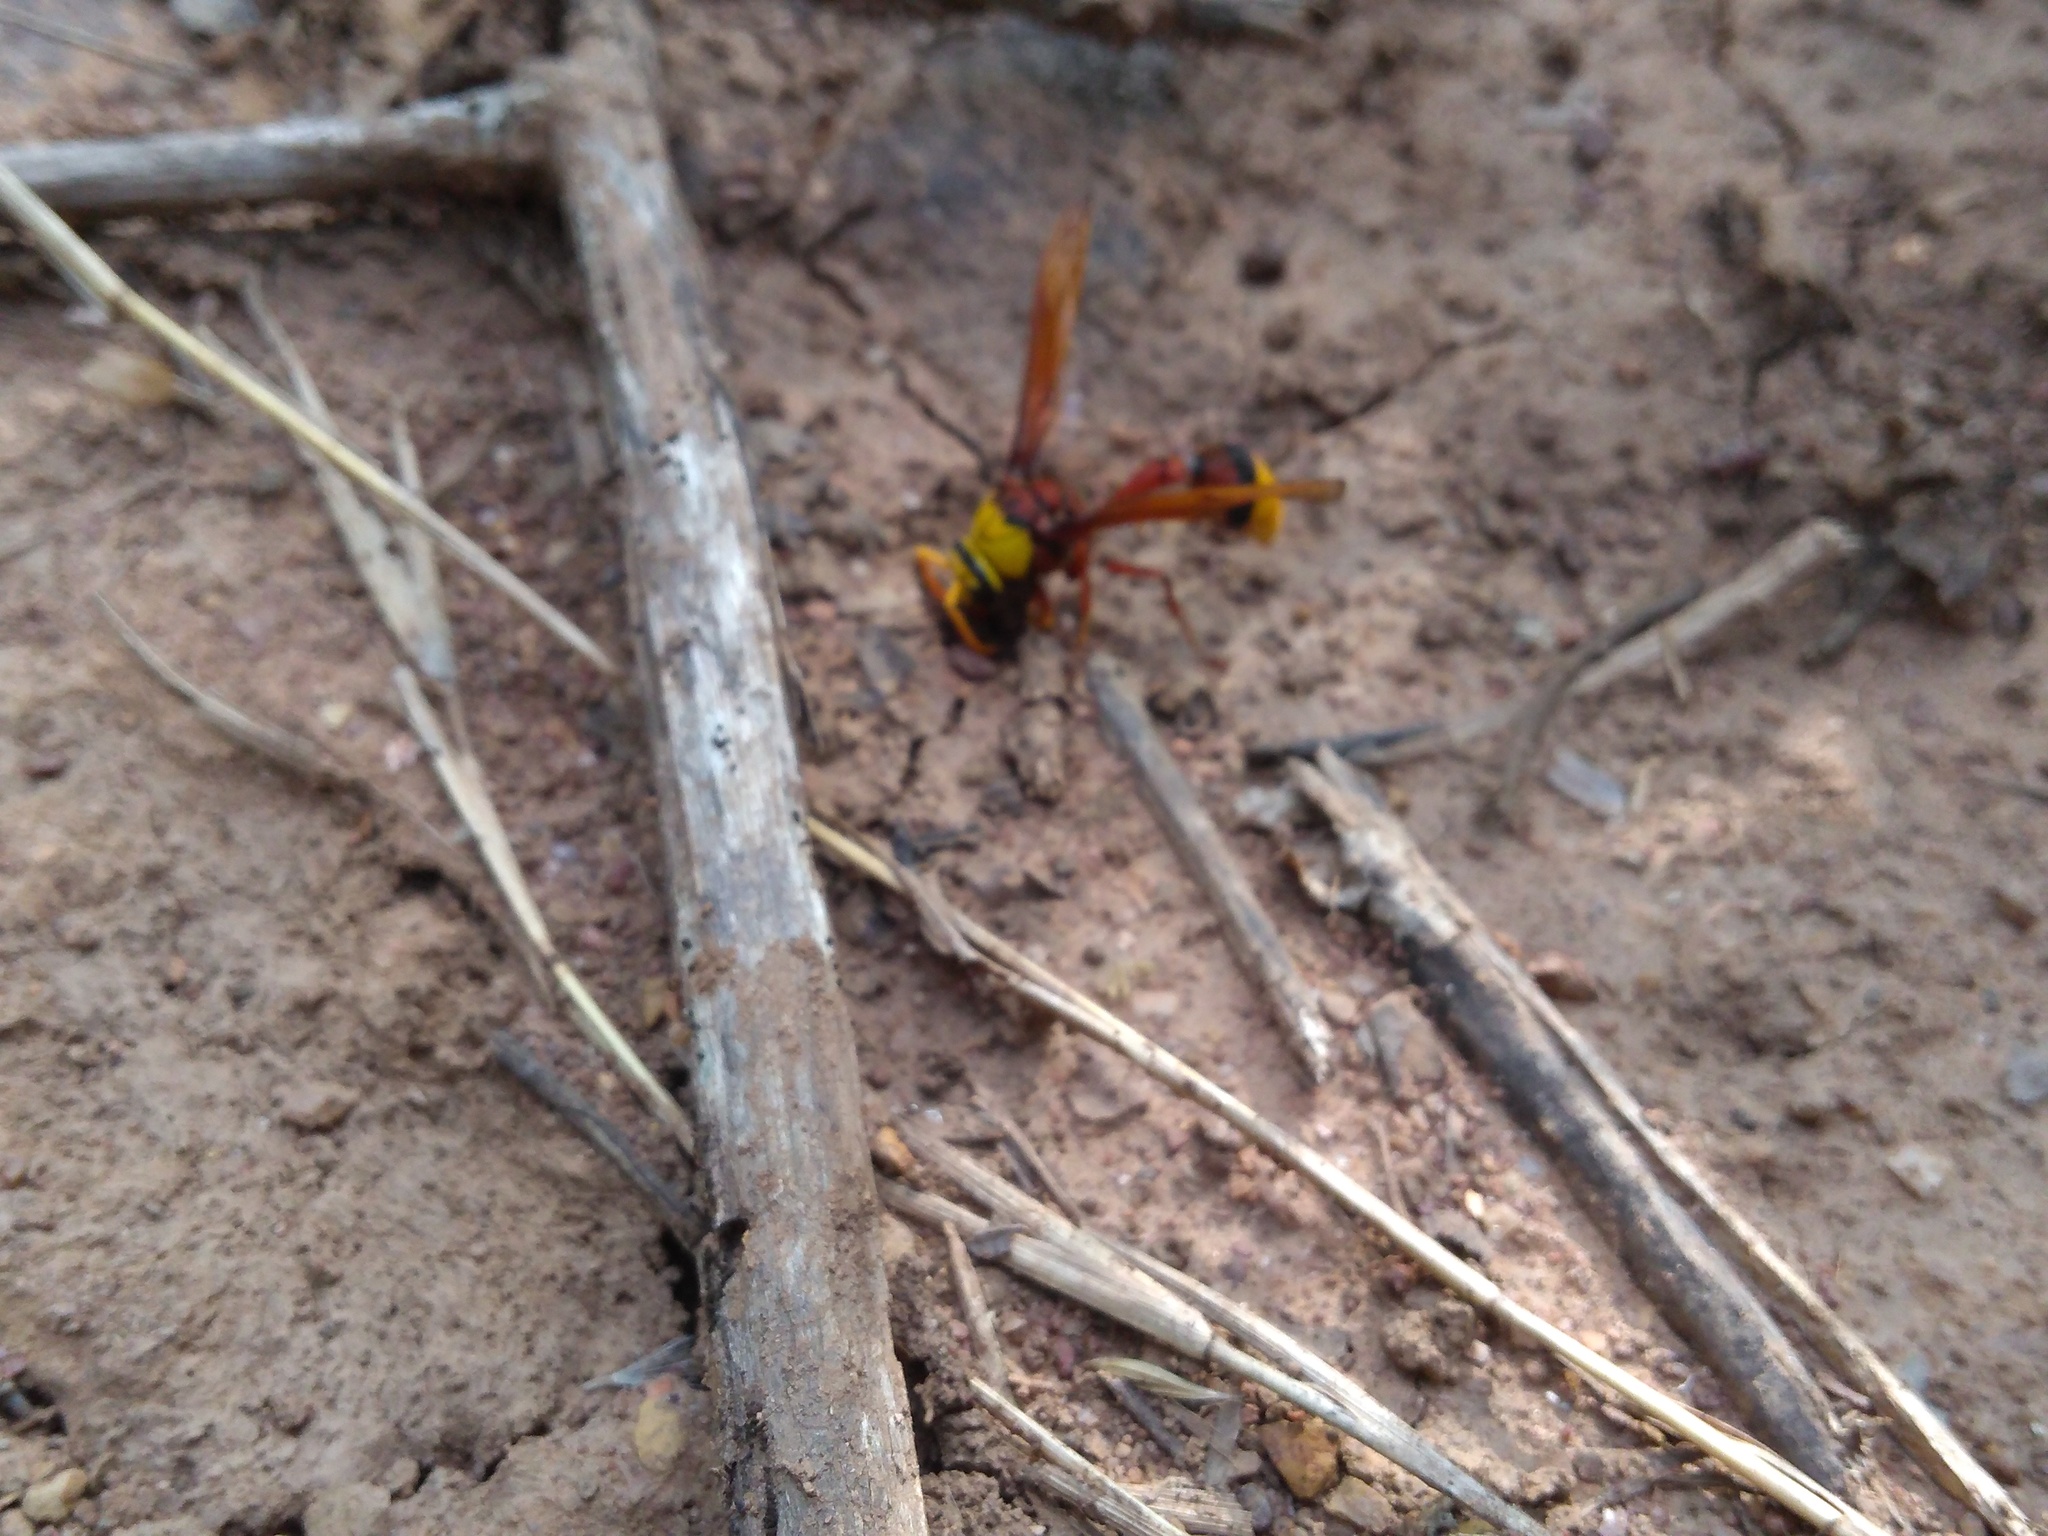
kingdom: Animalia
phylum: Arthropoda
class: Insecta
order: Hymenoptera
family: Eumenidae
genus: Delta
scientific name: Delta pyriforme
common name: Wasp
